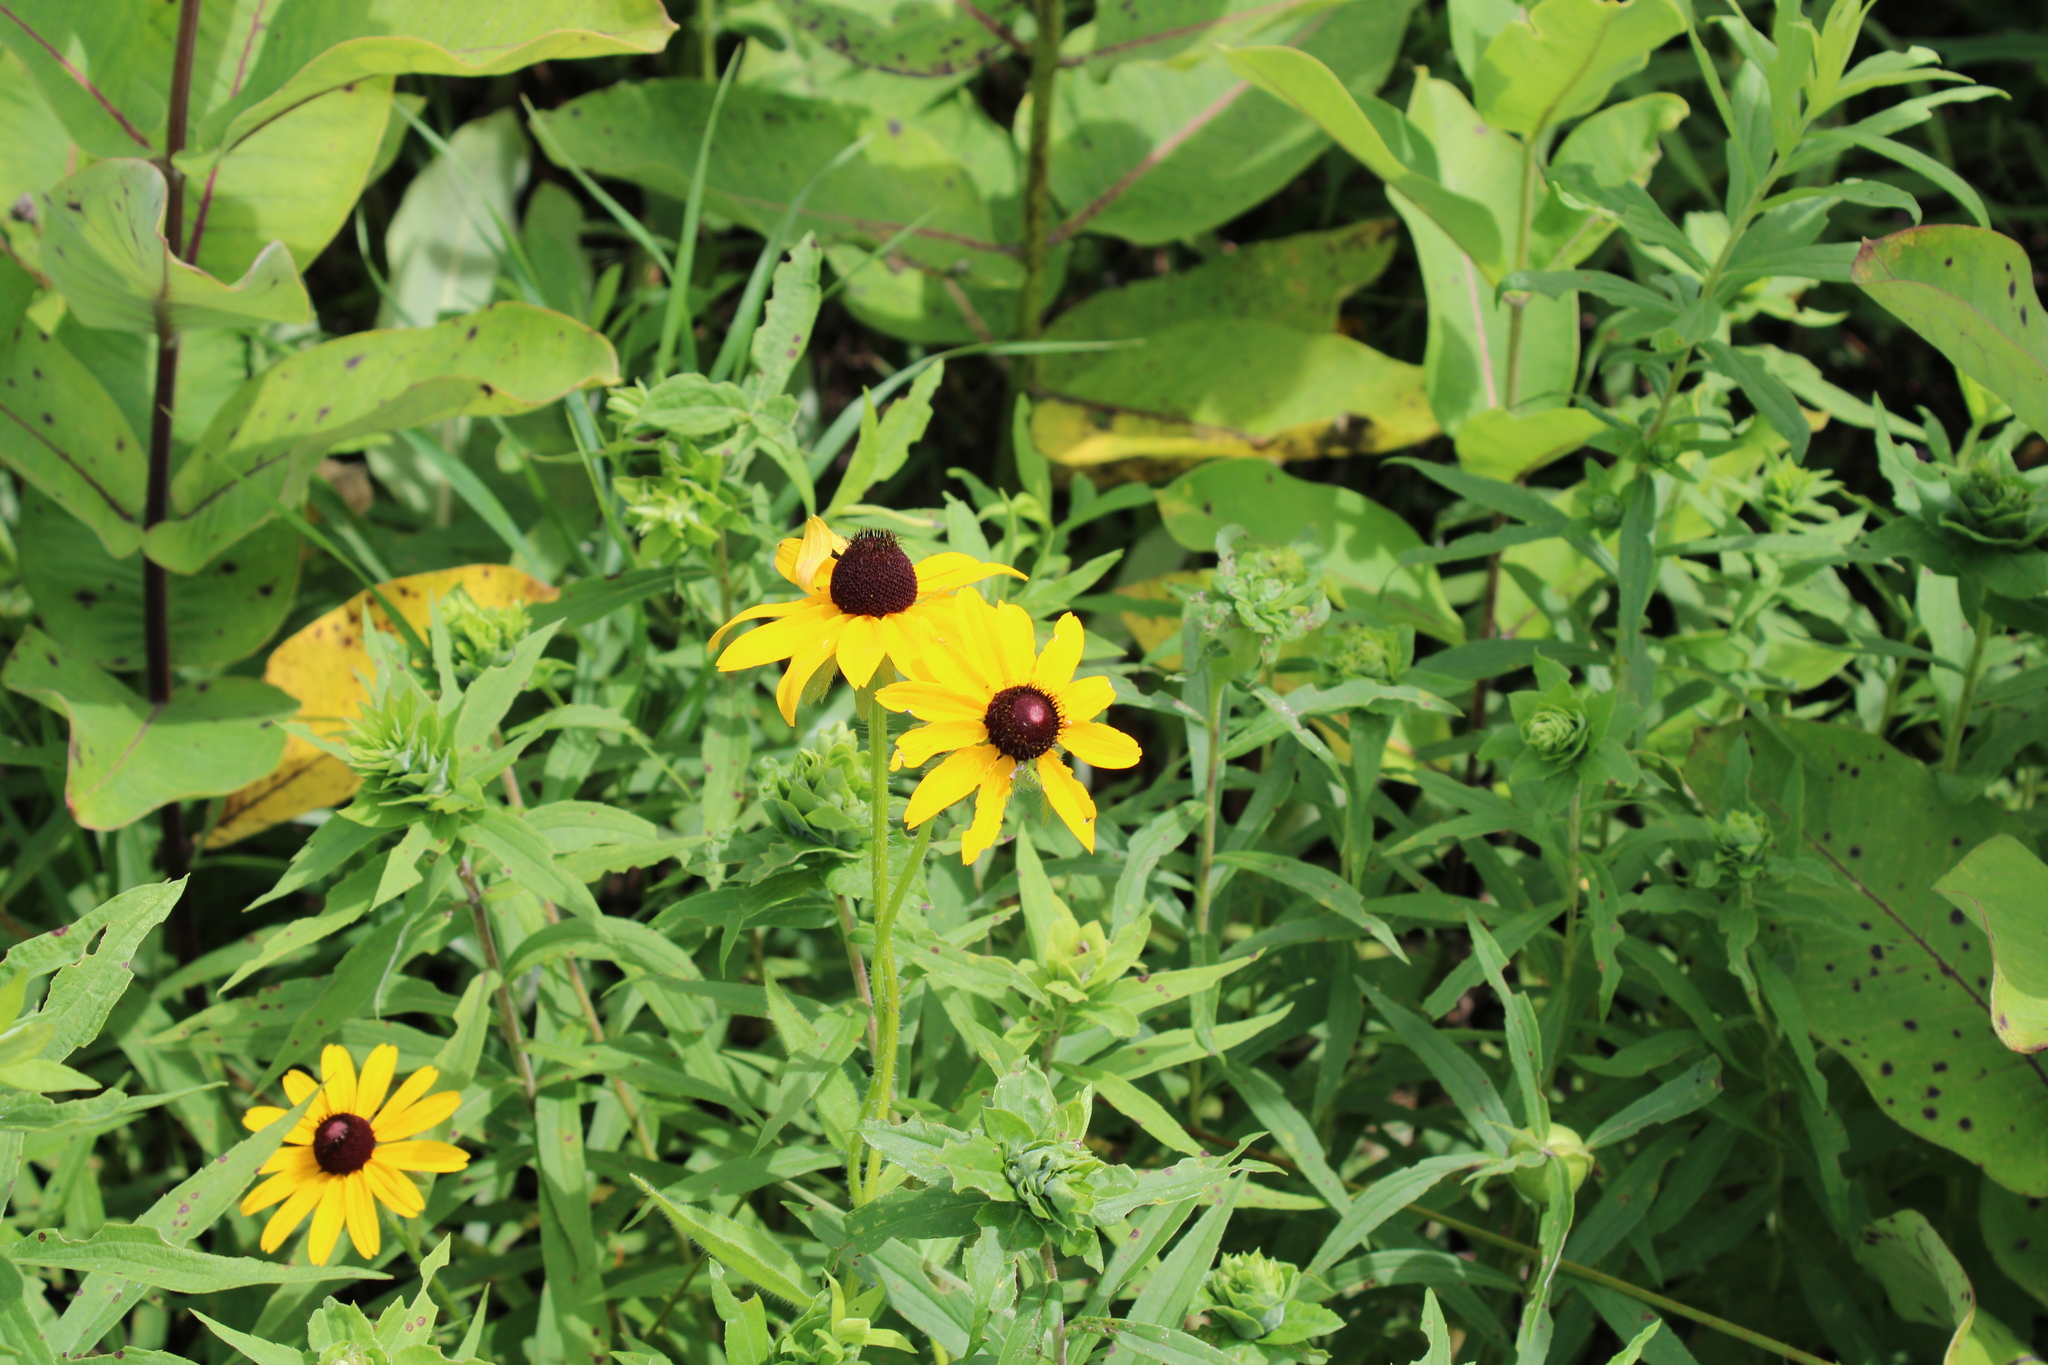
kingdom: Plantae
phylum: Tracheophyta
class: Magnoliopsida
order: Asterales
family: Asteraceae
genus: Rudbeckia
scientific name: Rudbeckia hirta
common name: Black-eyed-susan
